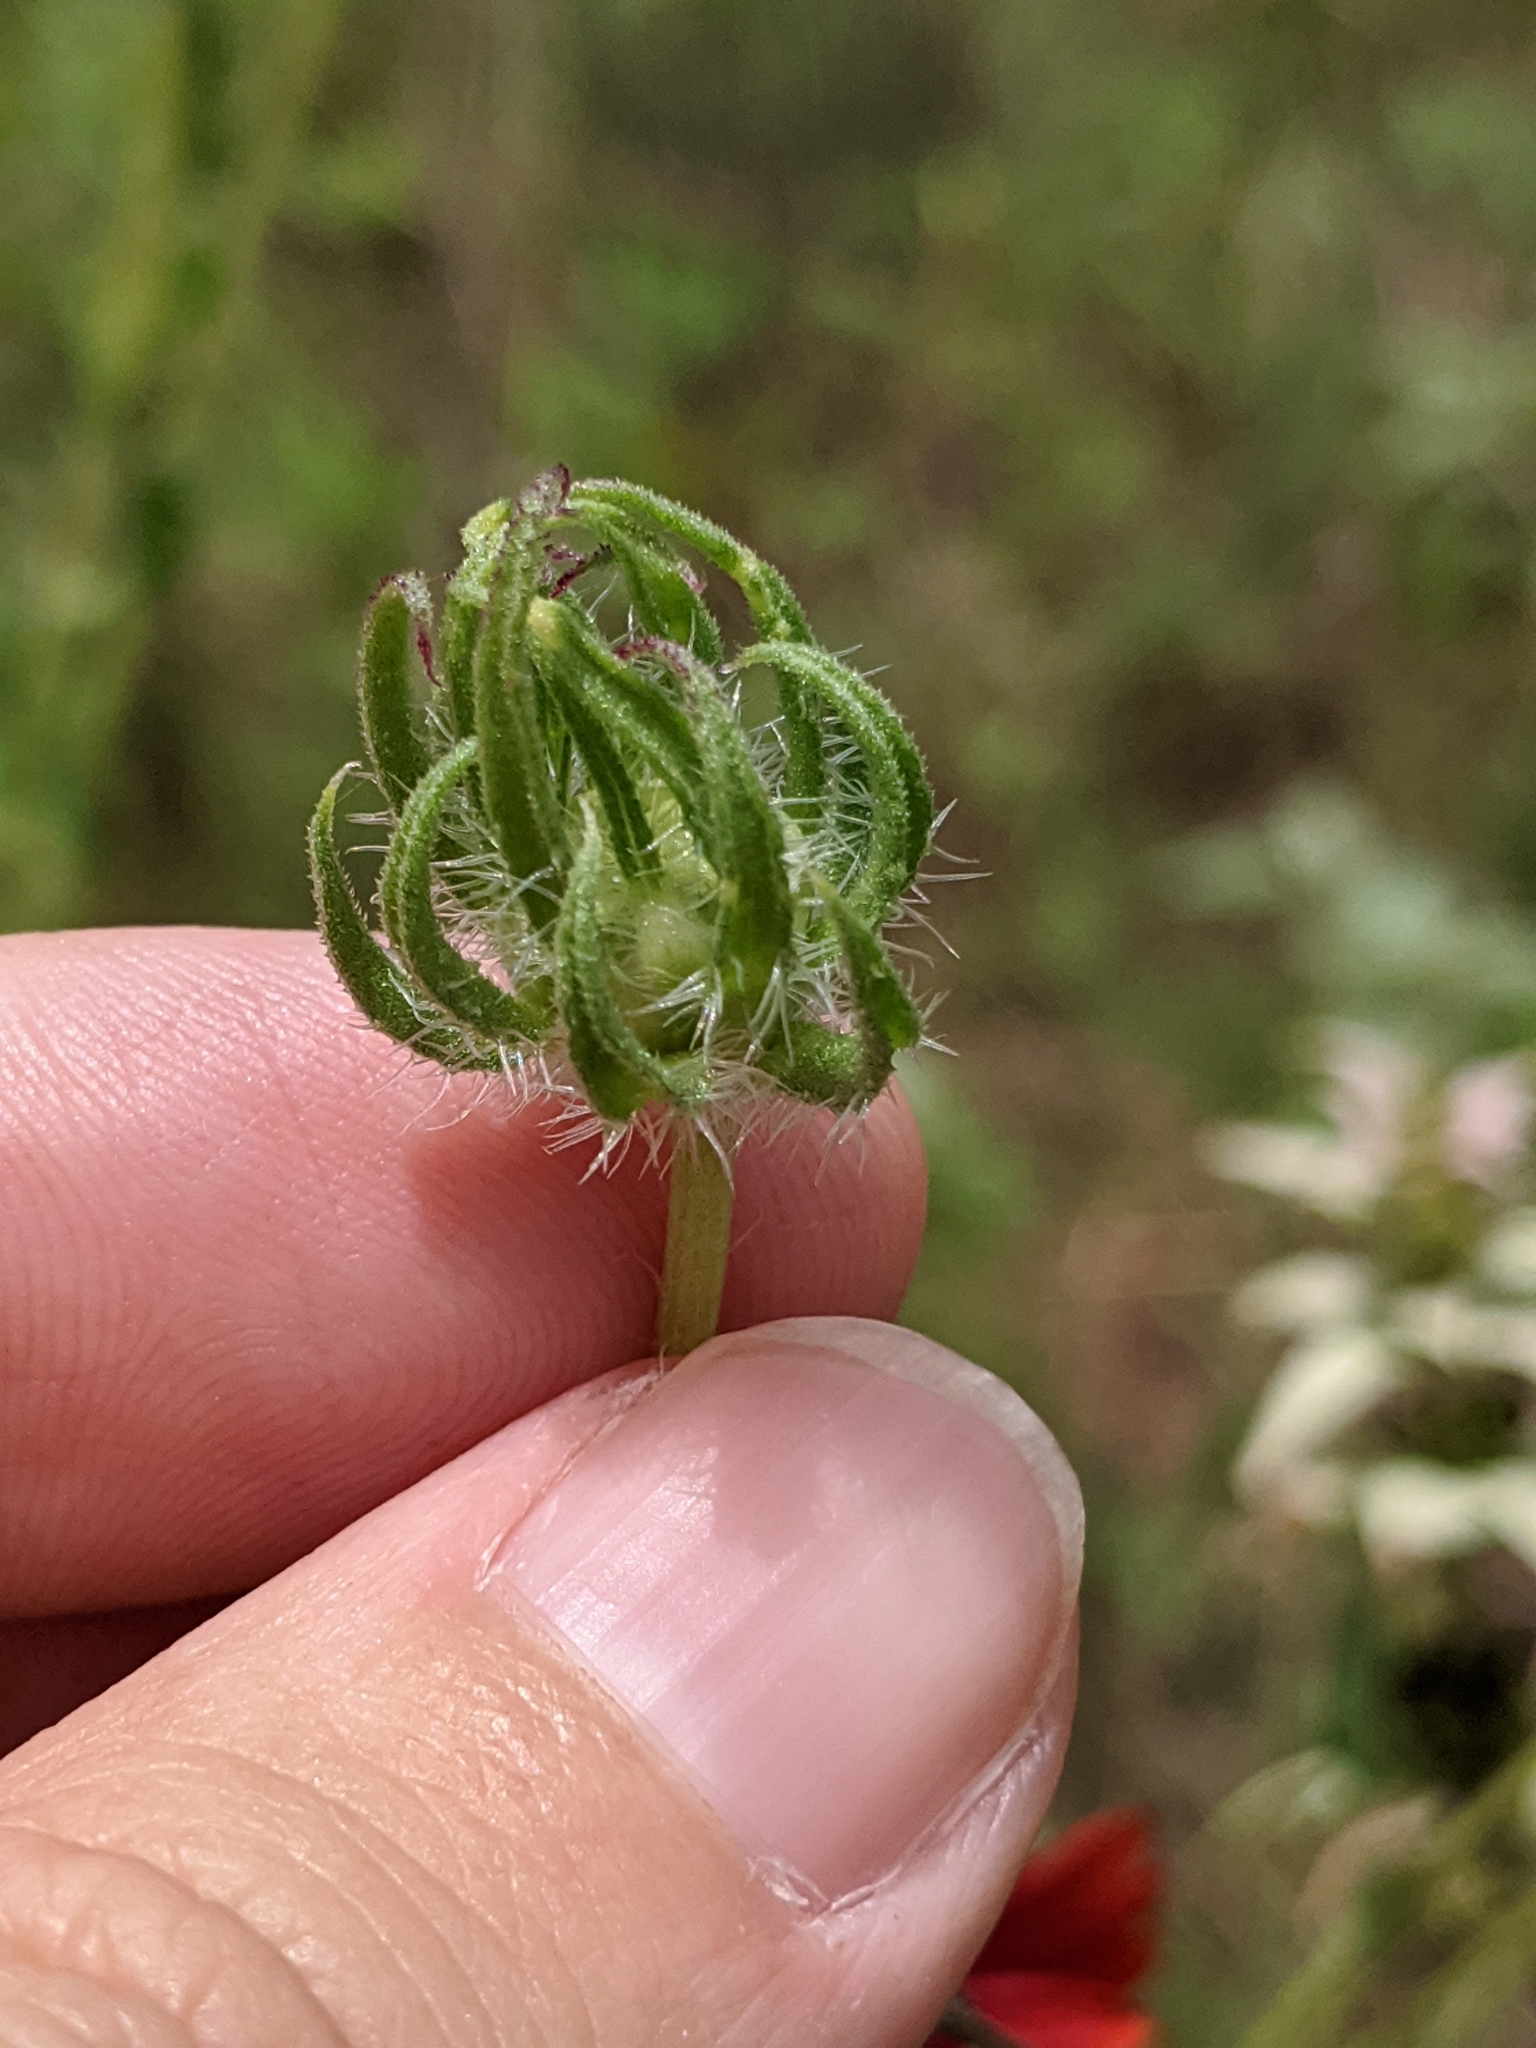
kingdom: Plantae
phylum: Tracheophyta
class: Magnoliopsida
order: Asterales
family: Asteraceae
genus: Gaillardia
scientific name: Gaillardia amblyodon
